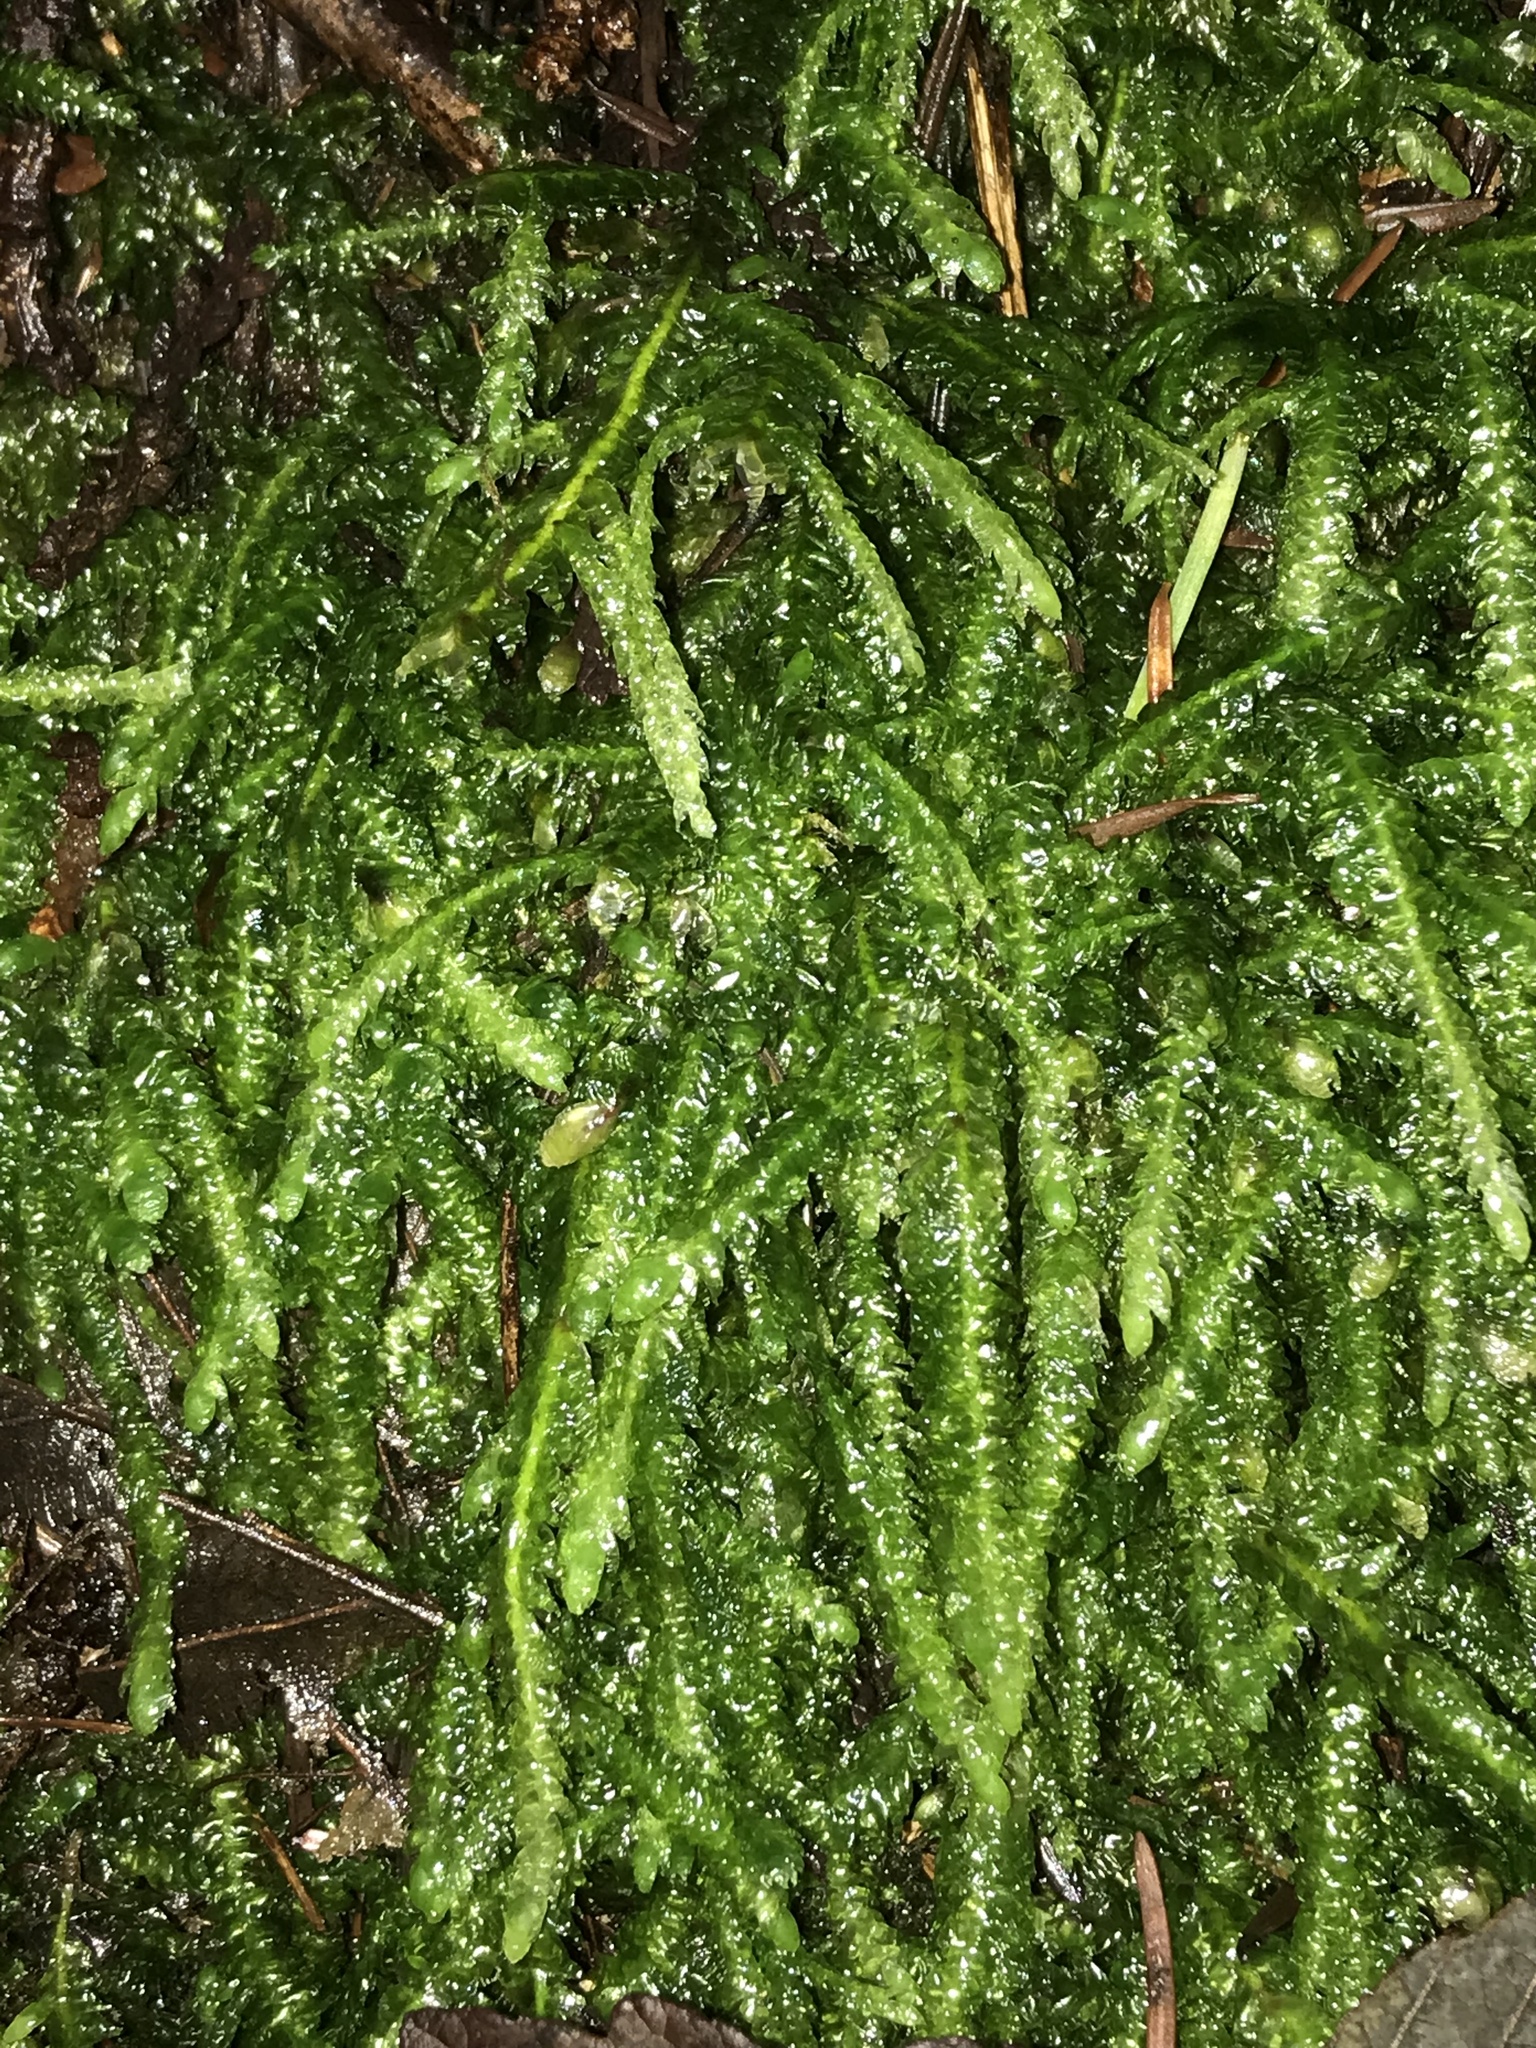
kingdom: Plantae
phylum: Bryophyta
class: Bryopsida
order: Hypnales
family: Plagiotheciaceae
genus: Plagiothecium
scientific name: Plagiothecium undulatum
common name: Waved silk-moss
